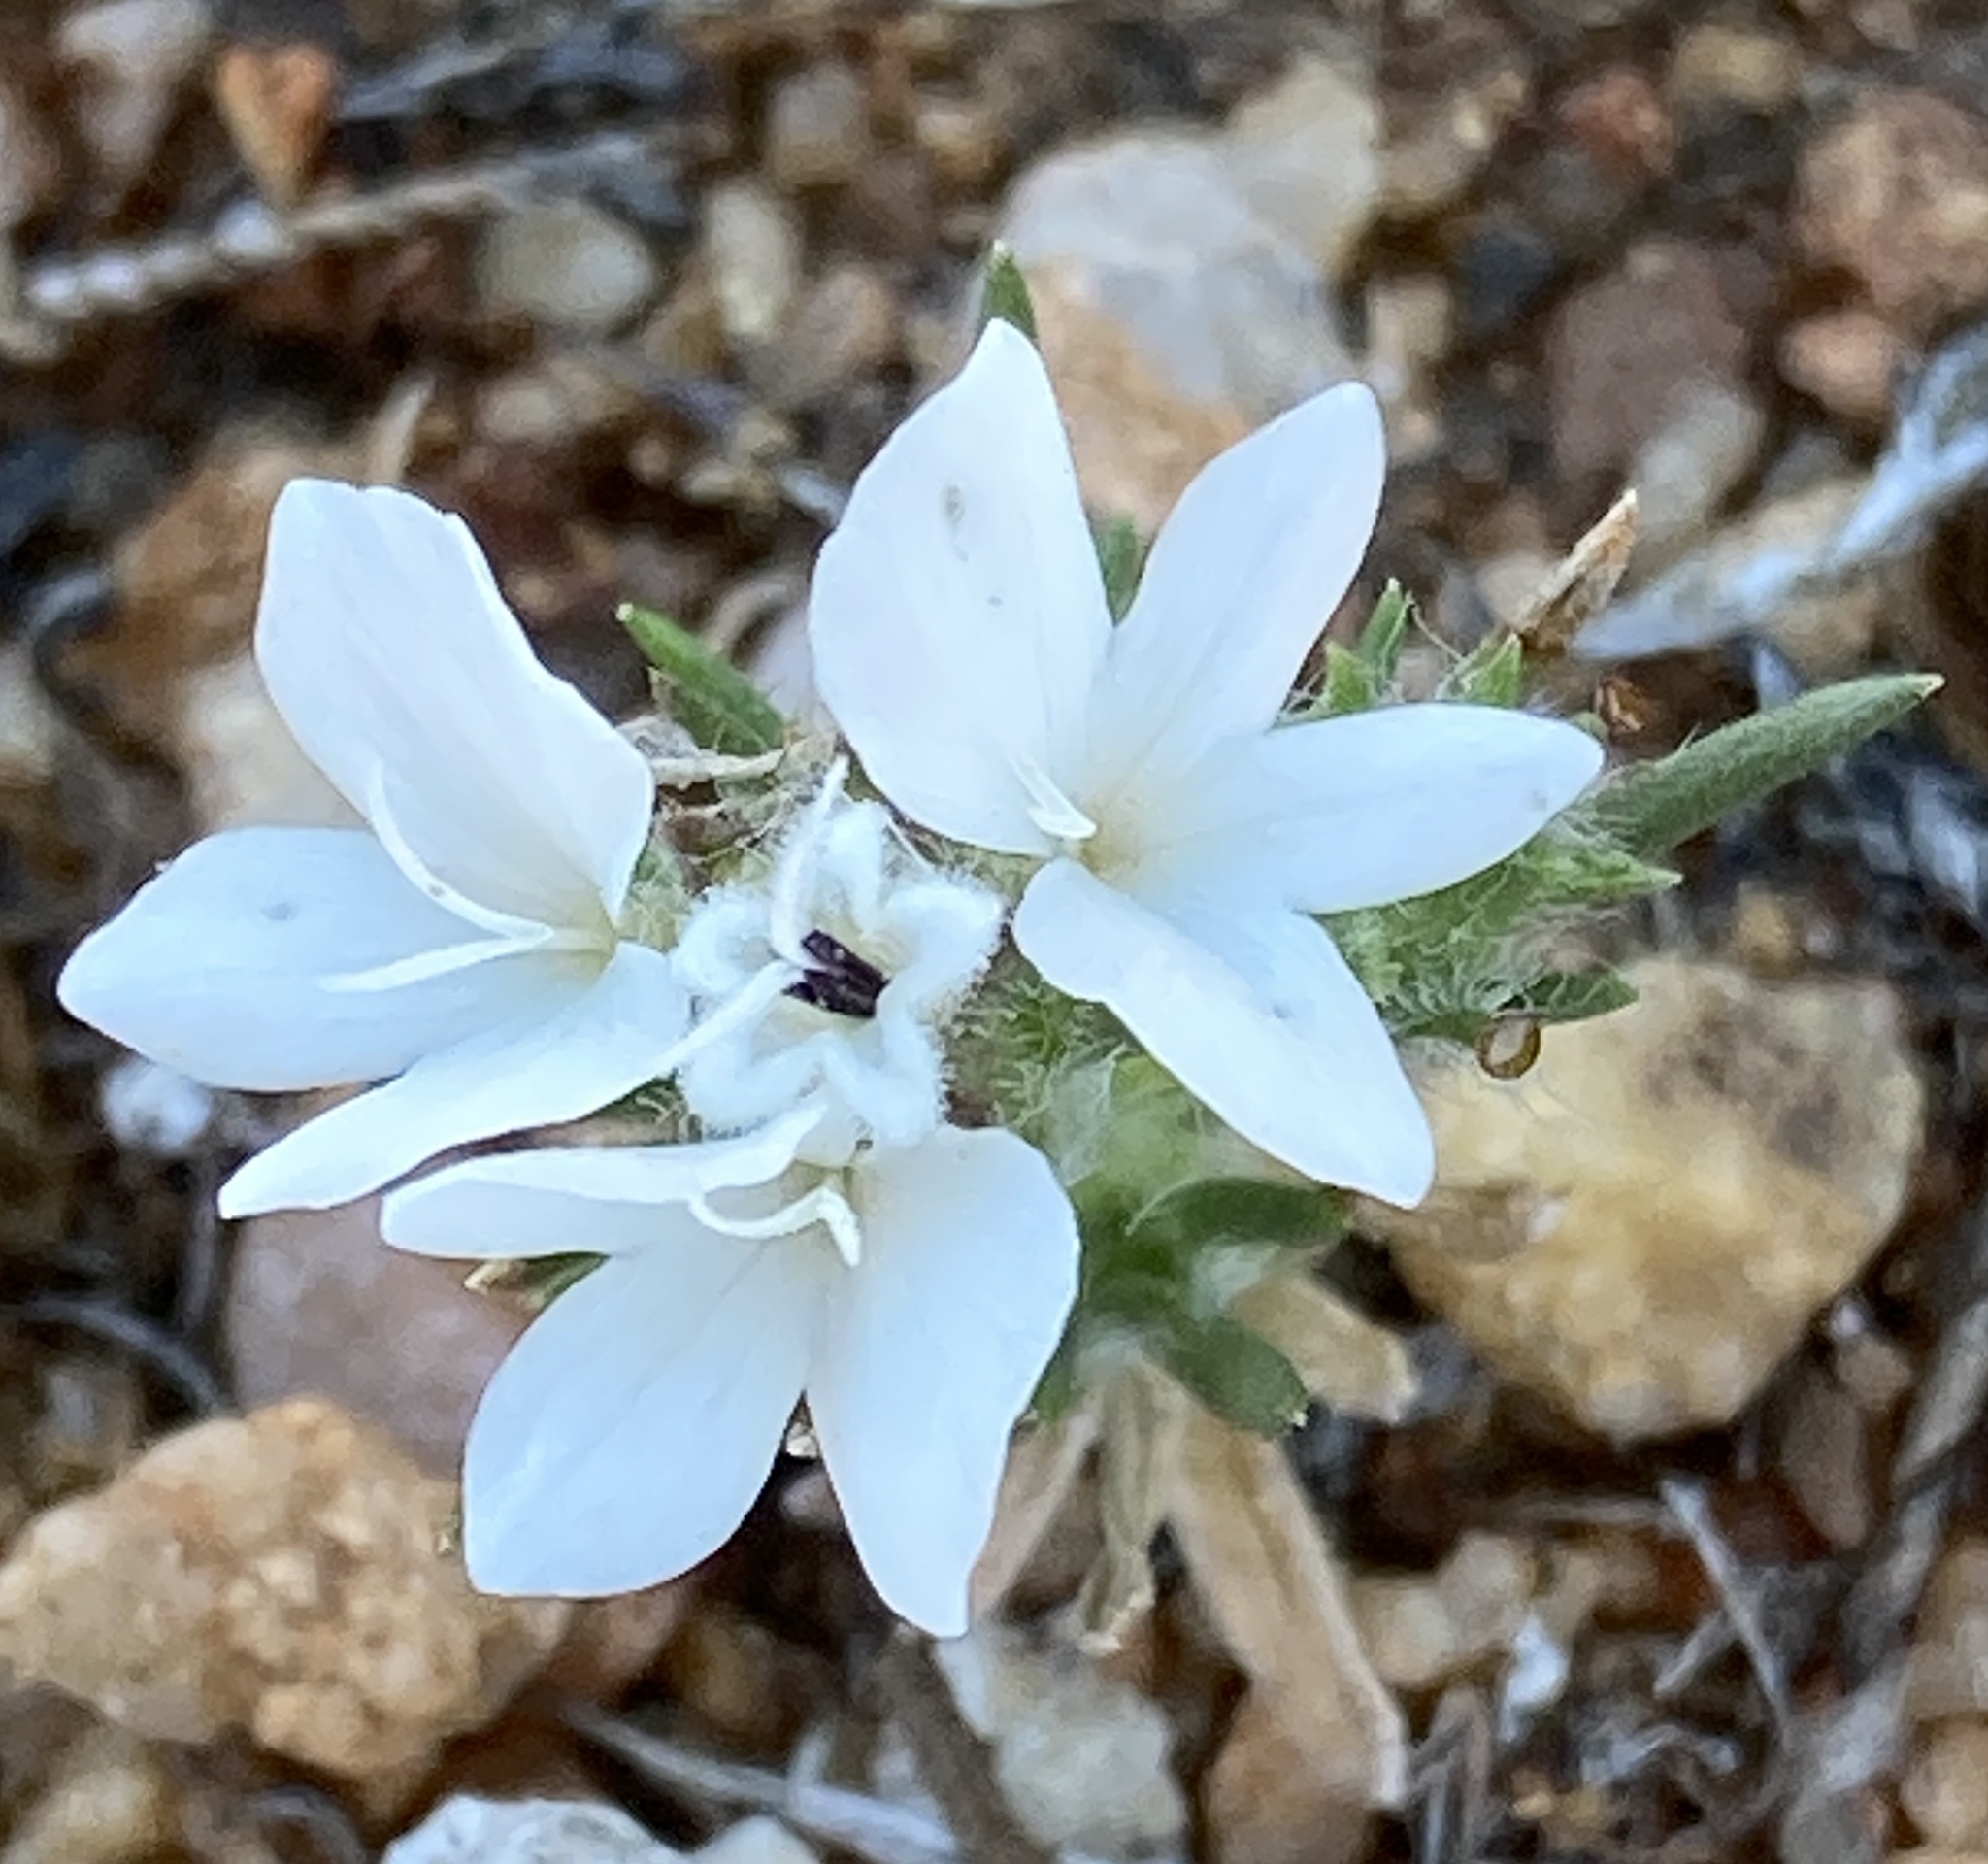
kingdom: Plantae
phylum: Tracheophyta
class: Magnoliopsida
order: Asterales
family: Asteraceae
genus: Calycadenia
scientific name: Calycadenia villosa
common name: Dwarf calycadenia
